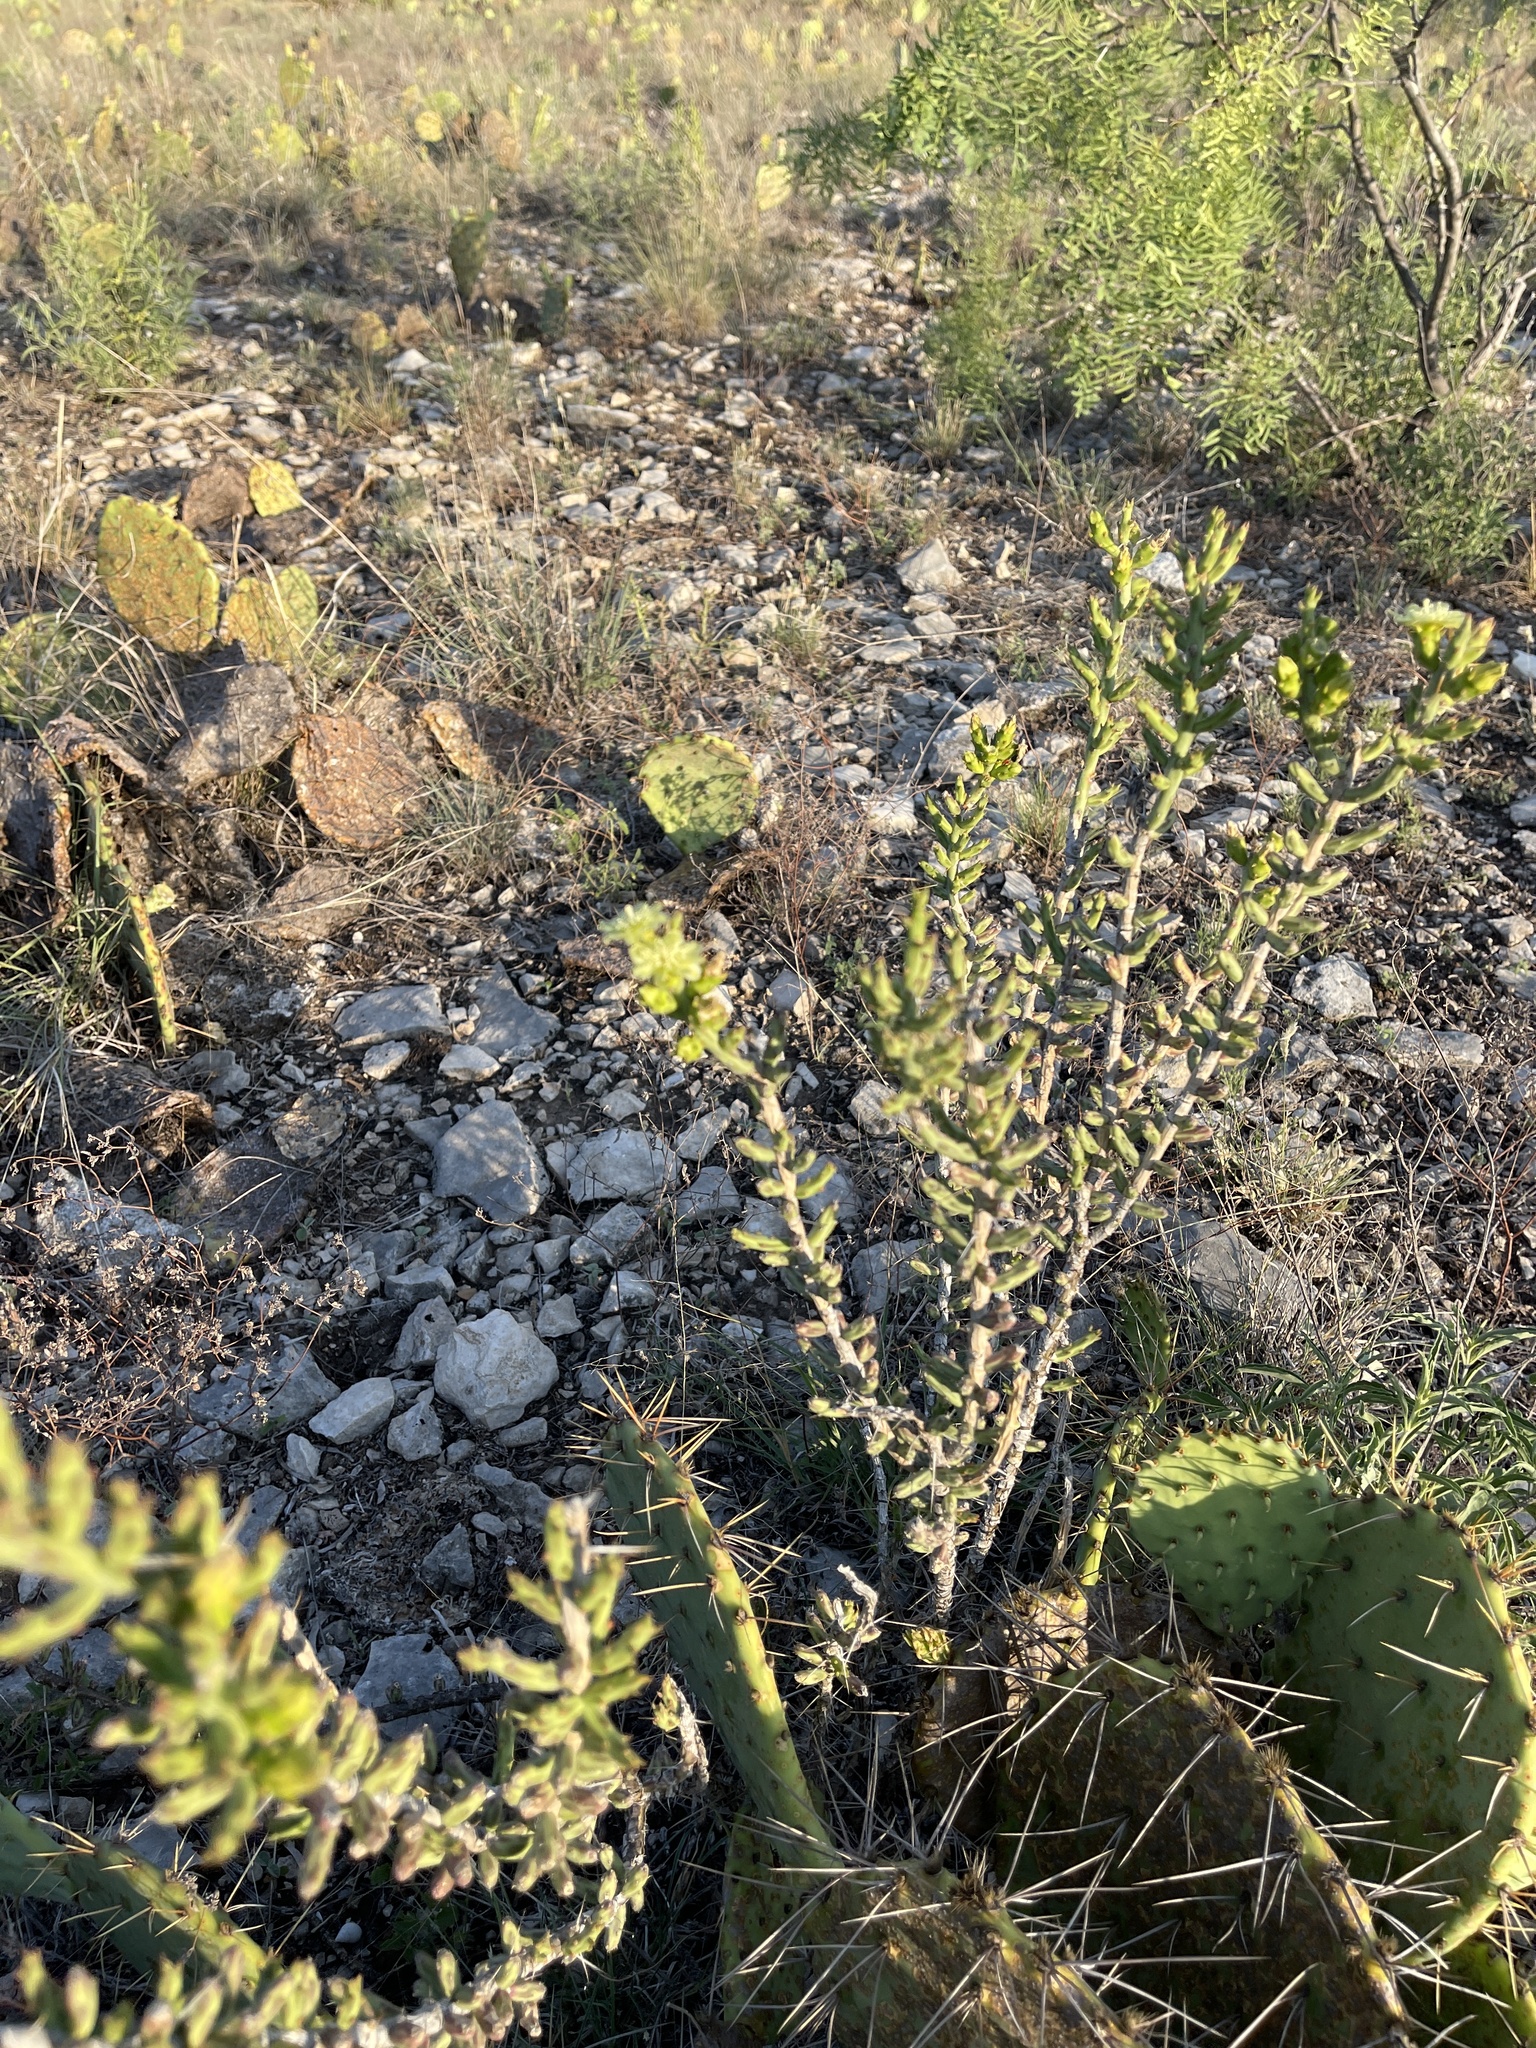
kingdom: Plantae
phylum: Tracheophyta
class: Magnoliopsida
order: Caryophyllales
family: Cactaceae
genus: Cylindropuntia
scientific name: Cylindropuntia leptocaulis
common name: Christmas cactus
